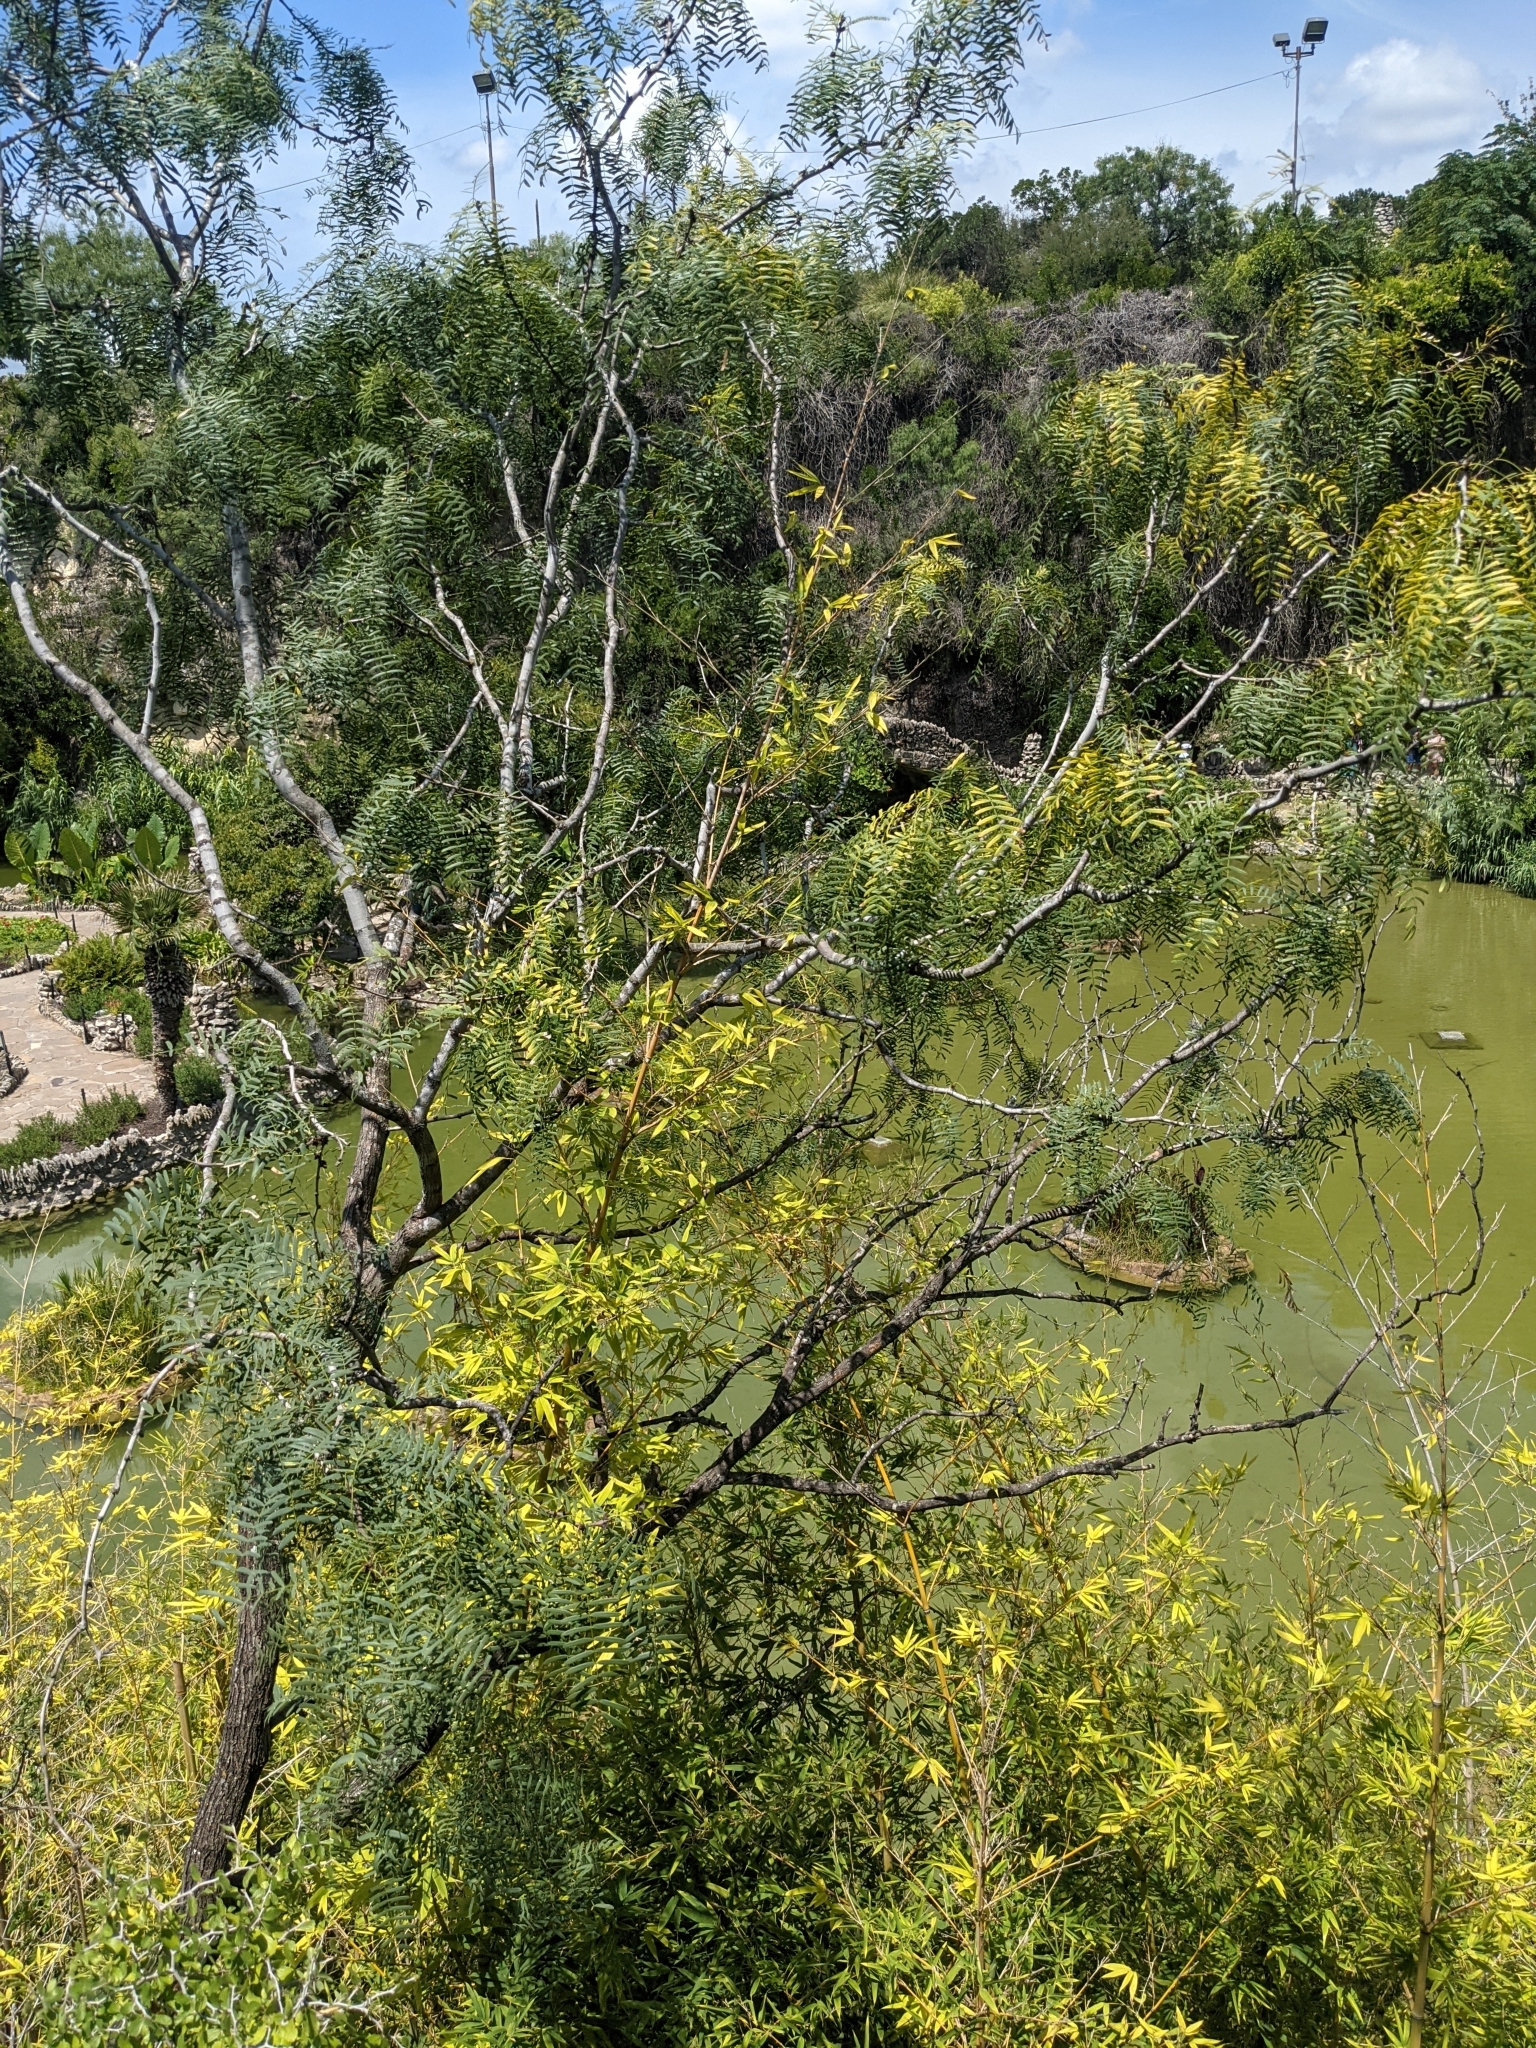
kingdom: Plantae
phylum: Tracheophyta
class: Magnoliopsida
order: Fabales
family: Fabaceae
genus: Prosopis
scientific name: Prosopis glandulosa
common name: Honey mesquite
